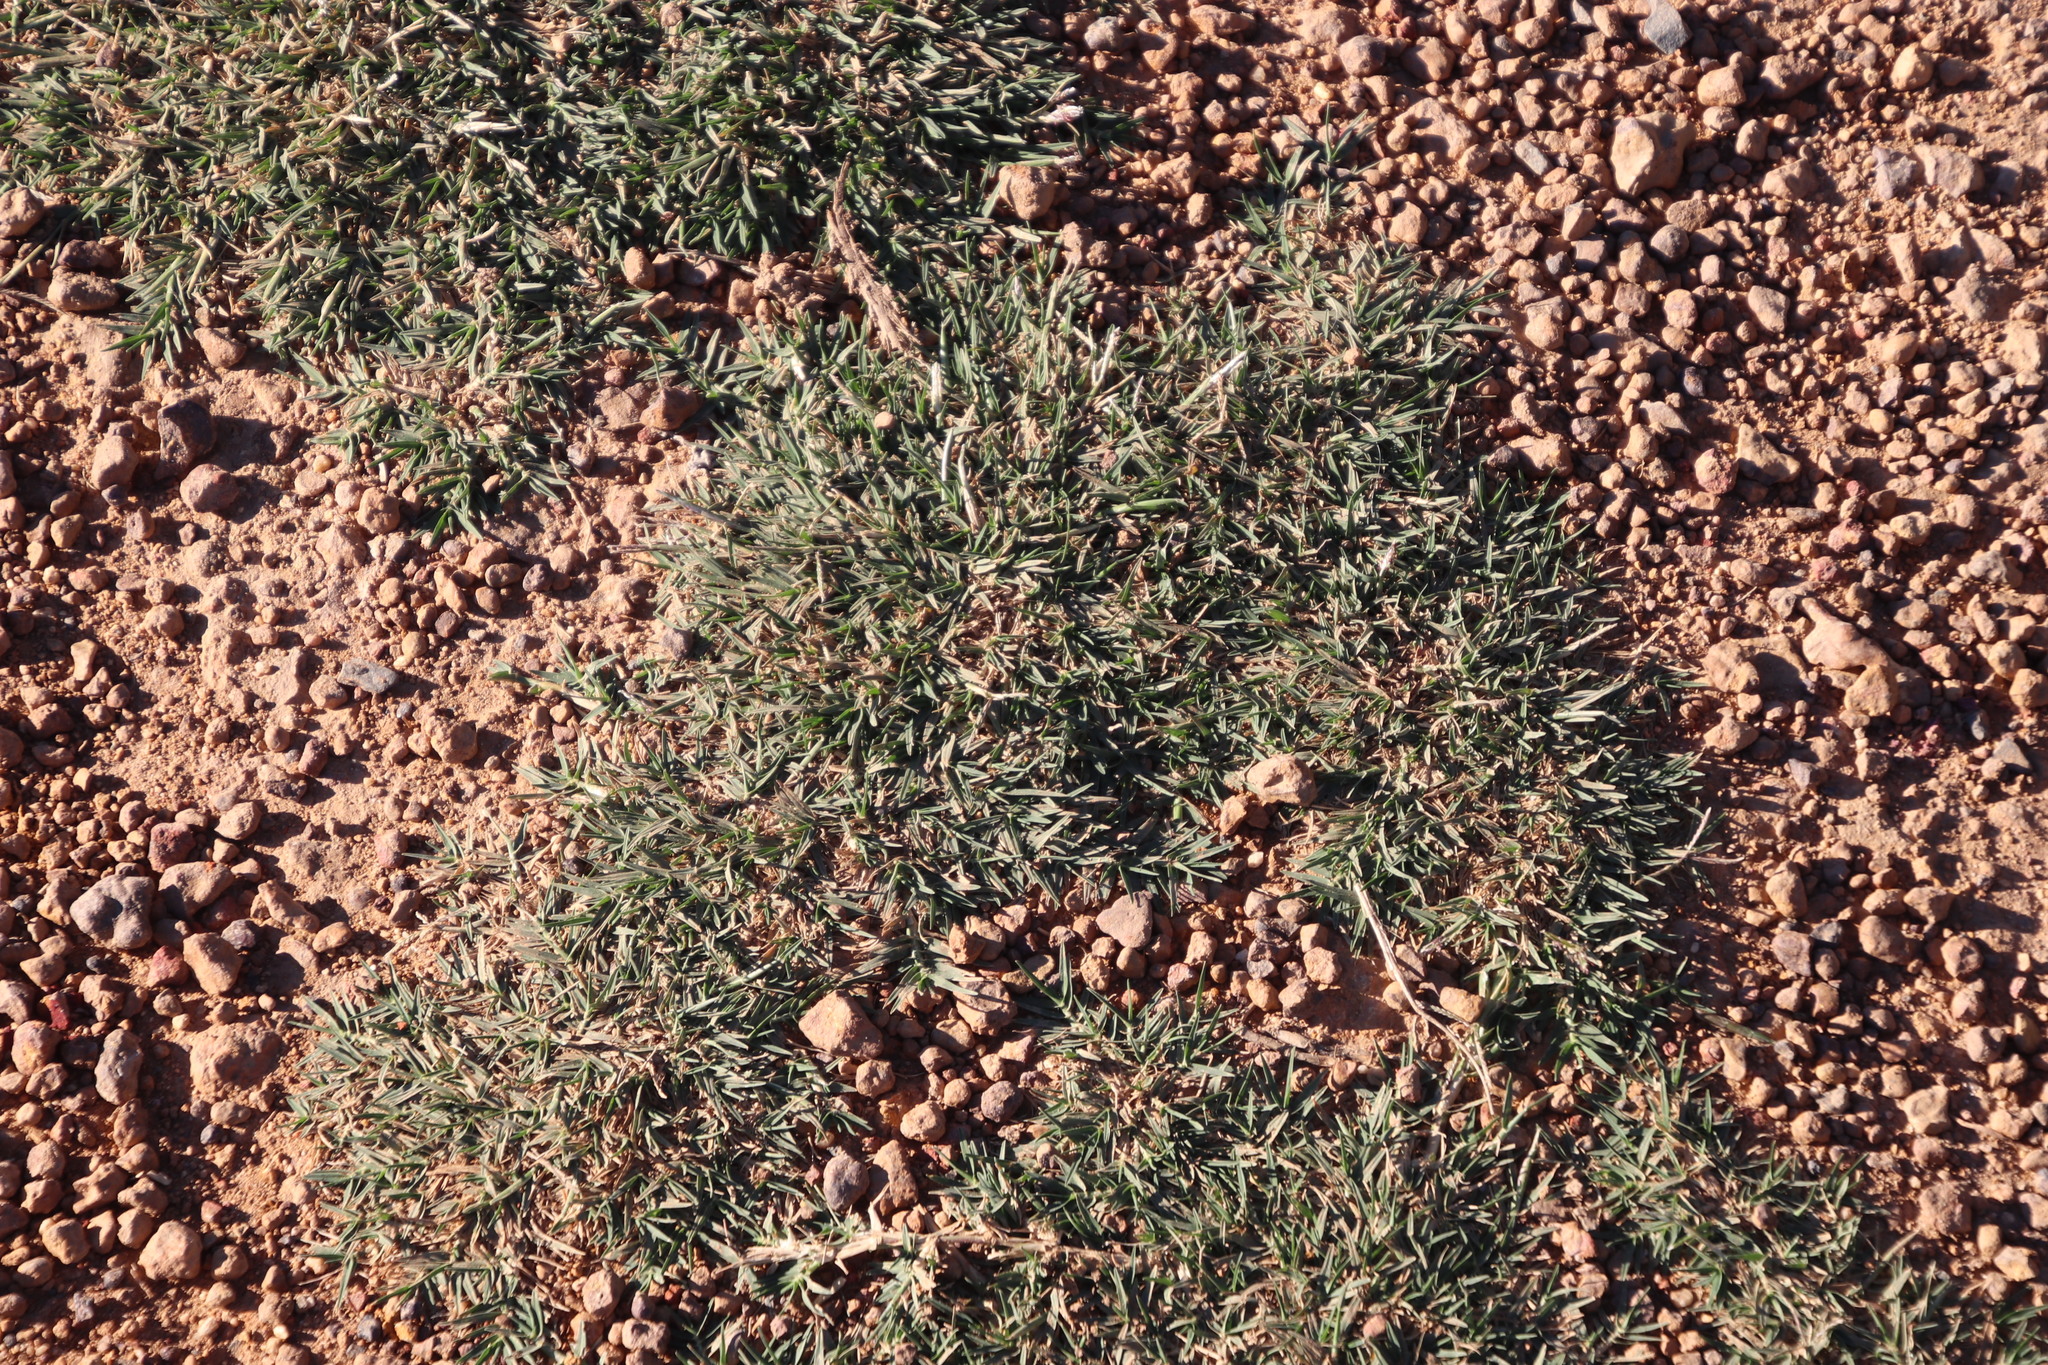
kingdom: Plantae
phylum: Tracheophyta
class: Liliopsida
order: Poales
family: Poaceae
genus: Cynodon
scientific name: Cynodon dactylon
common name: Bermuda grass
